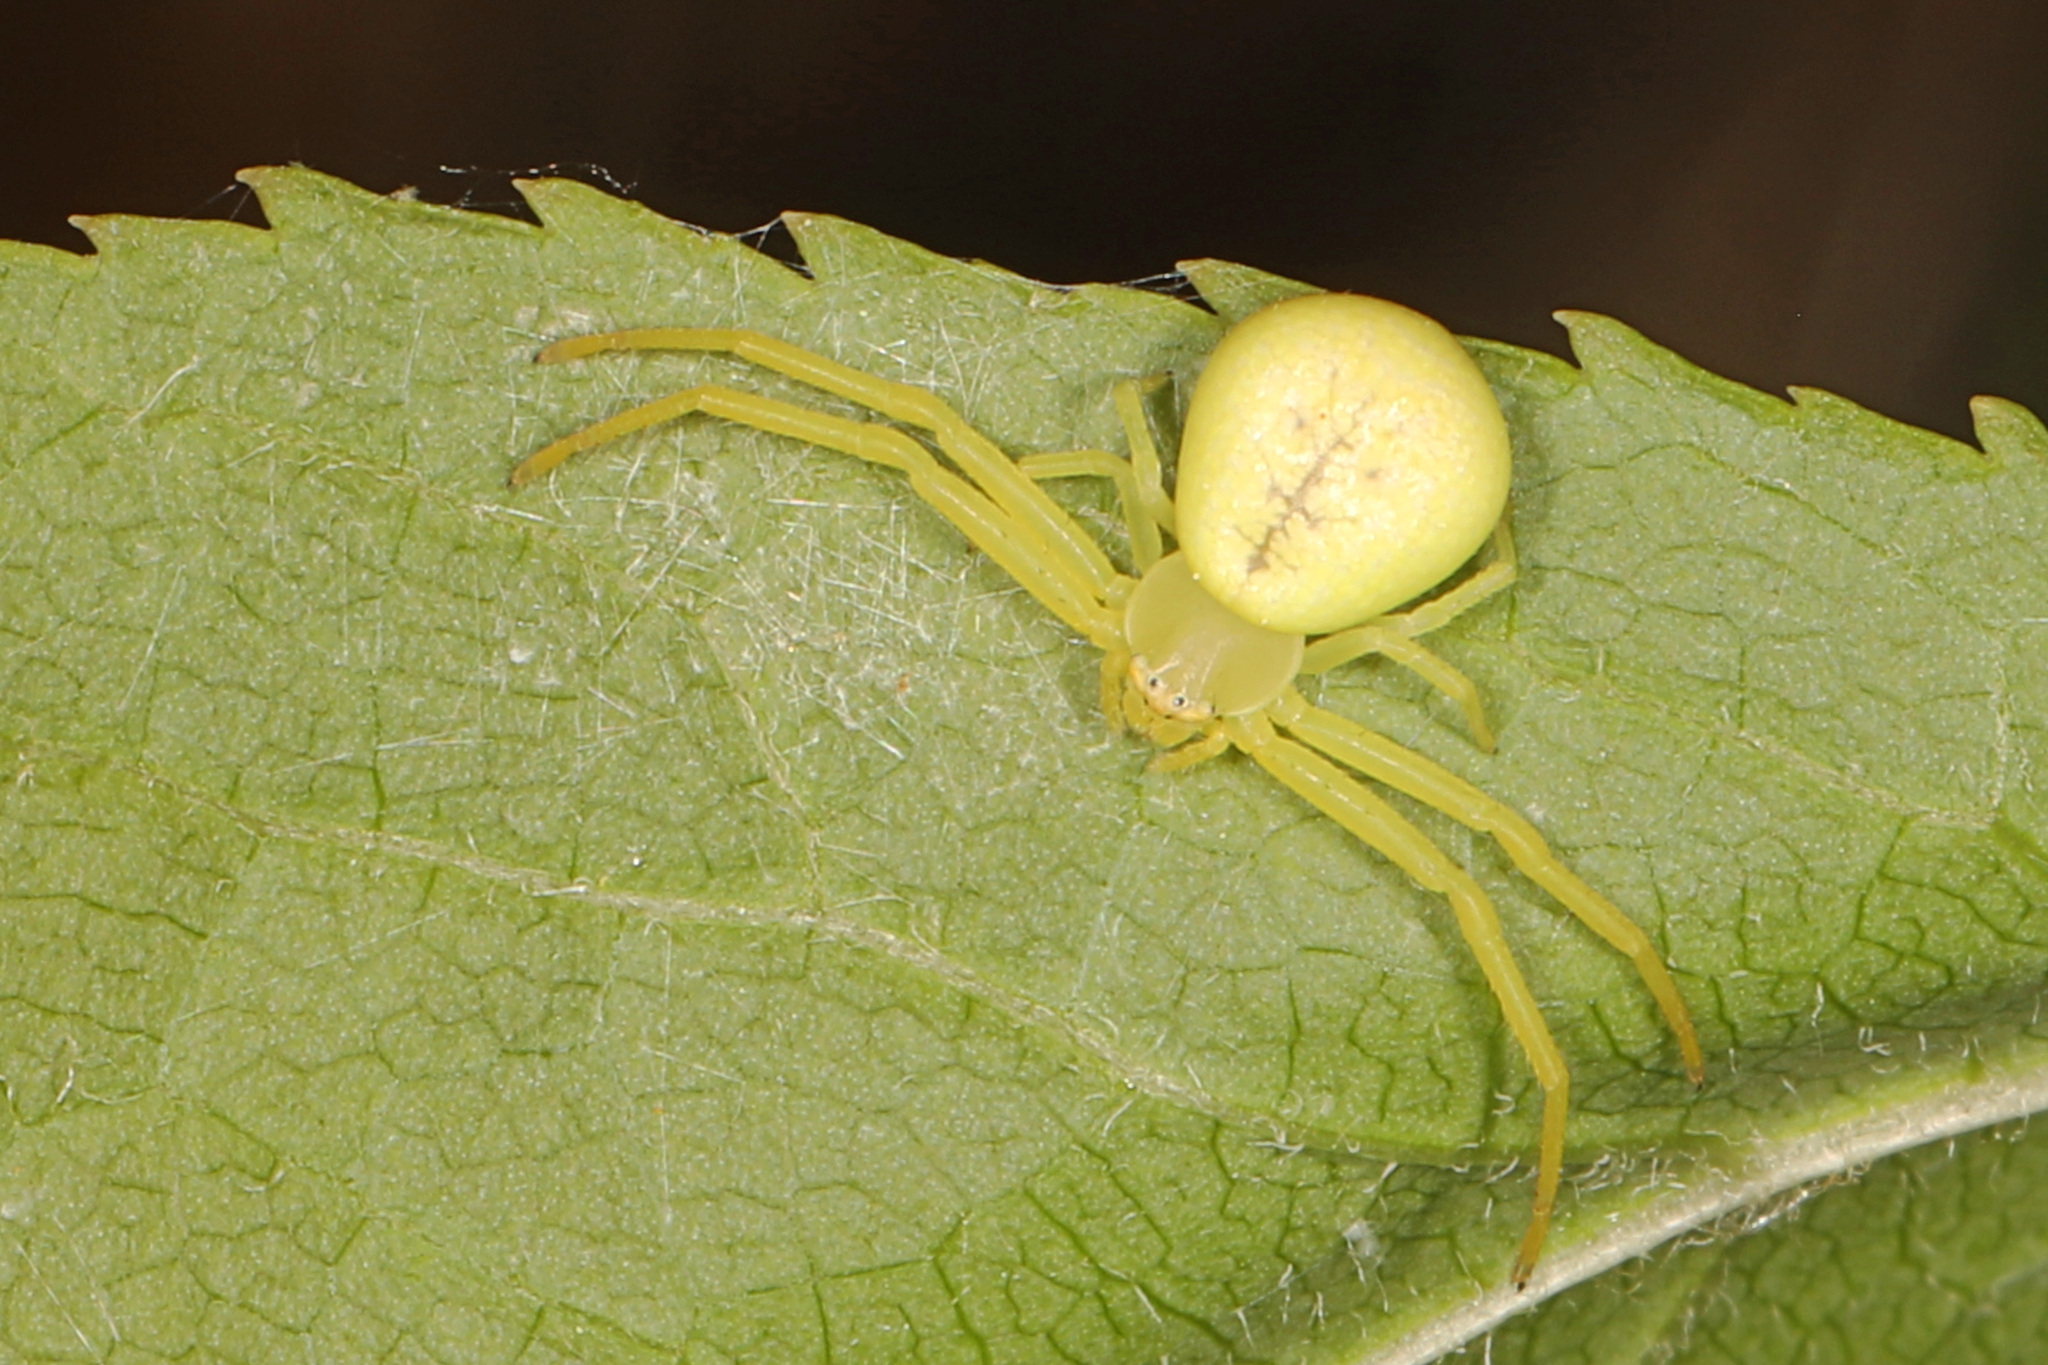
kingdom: Animalia
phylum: Arthropoda
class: Arachnida
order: Araneae
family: Thomisidae
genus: Misumessus
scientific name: Misumessus oblongus
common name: American green crab spider
